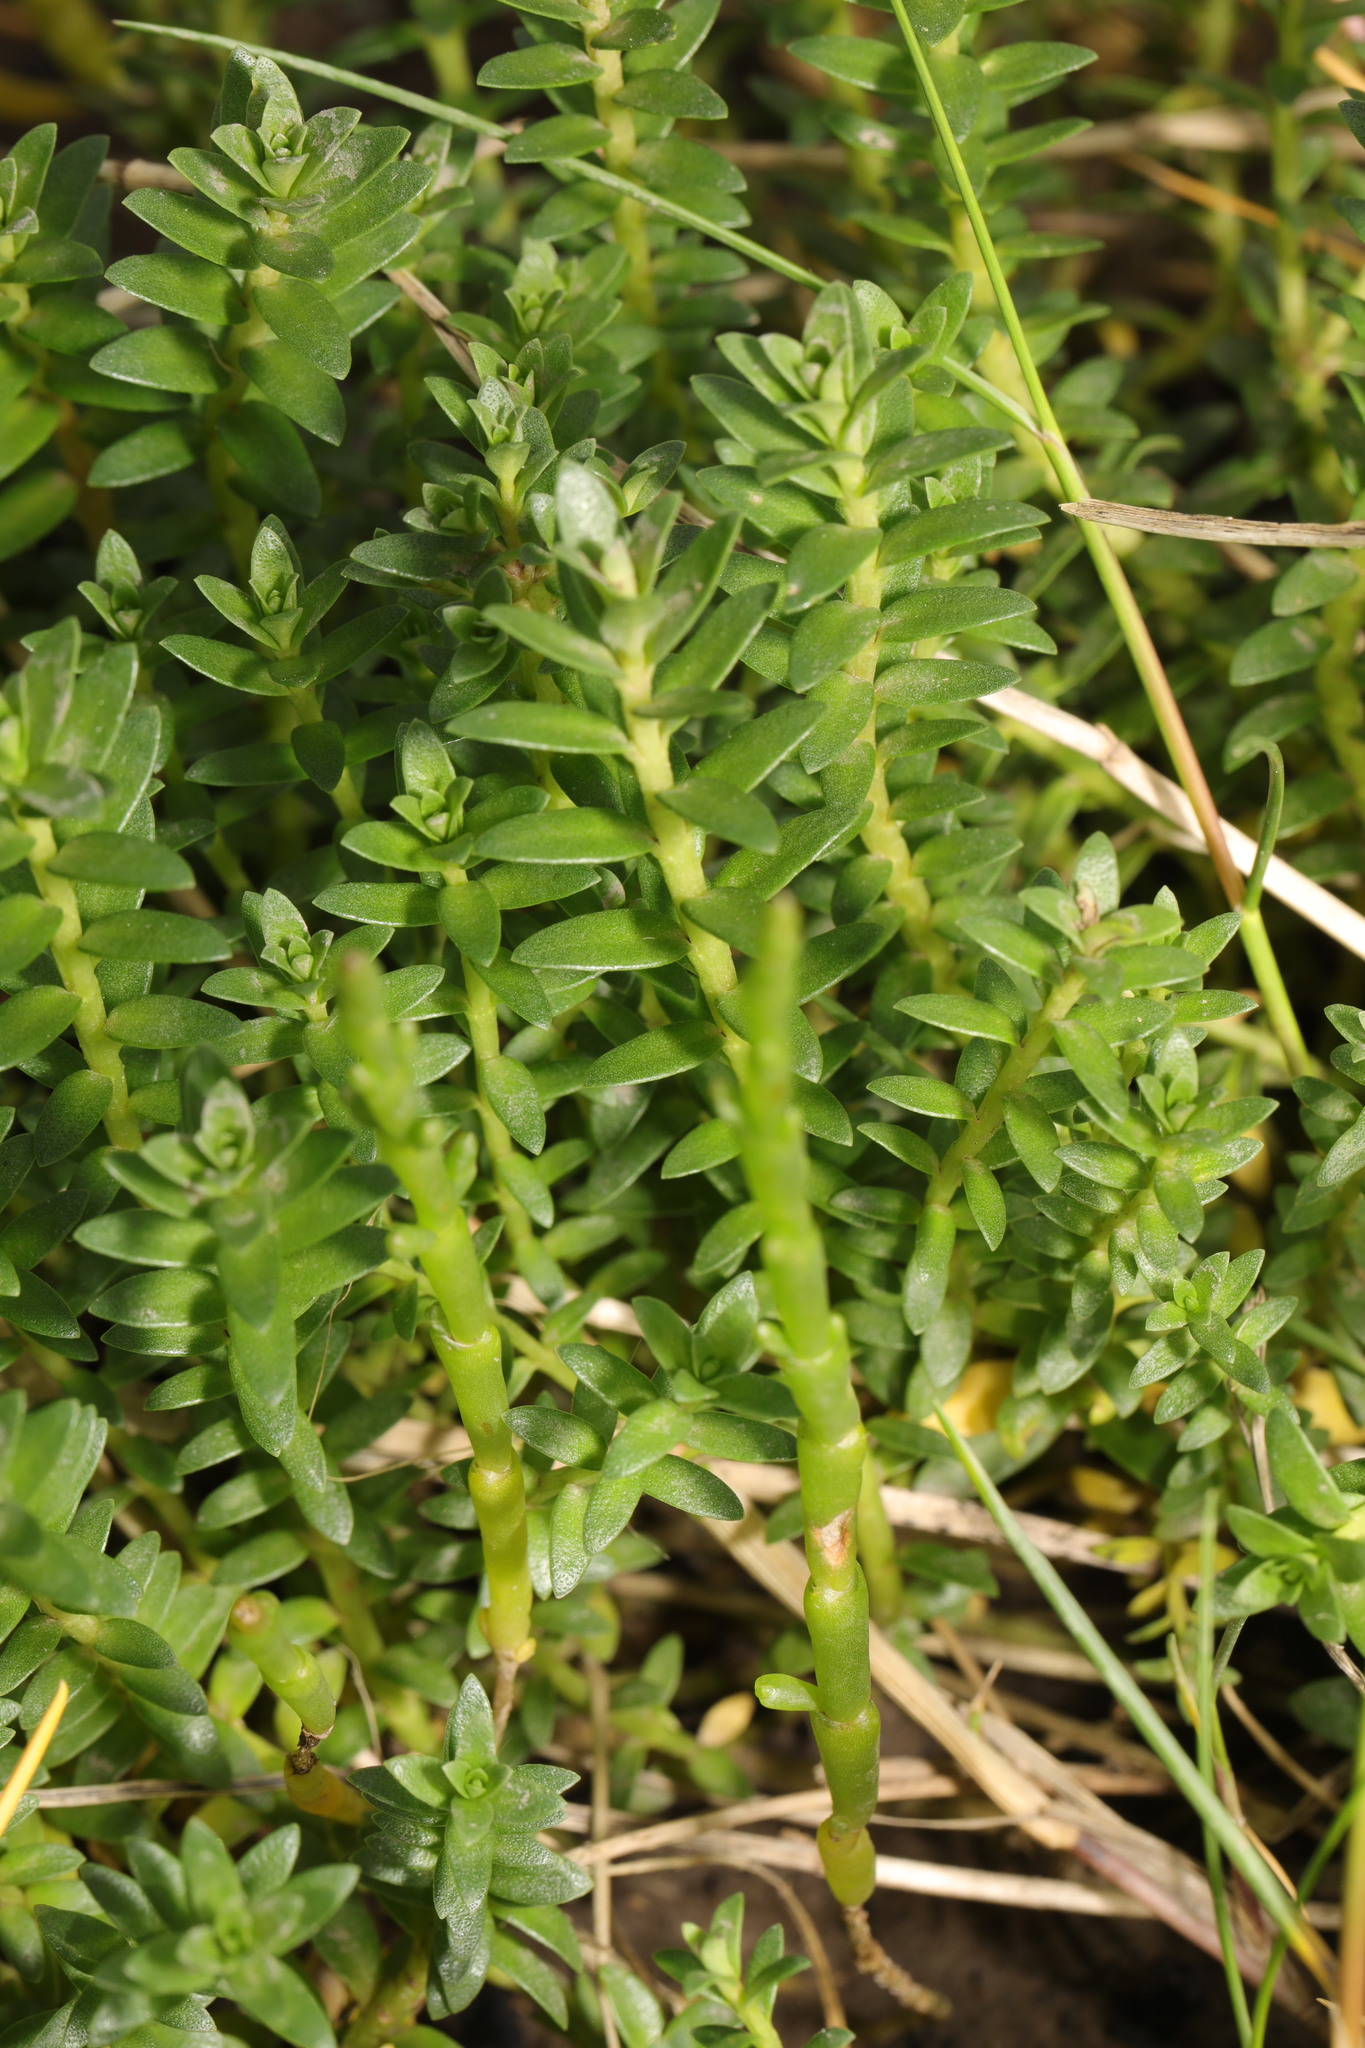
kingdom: Plantae
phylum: Tracheophyta
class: Magnoliopsida
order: Ericales
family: Primulaceae
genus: Lysimachia
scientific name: Lysimachia maritima
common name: Sea milkwort
